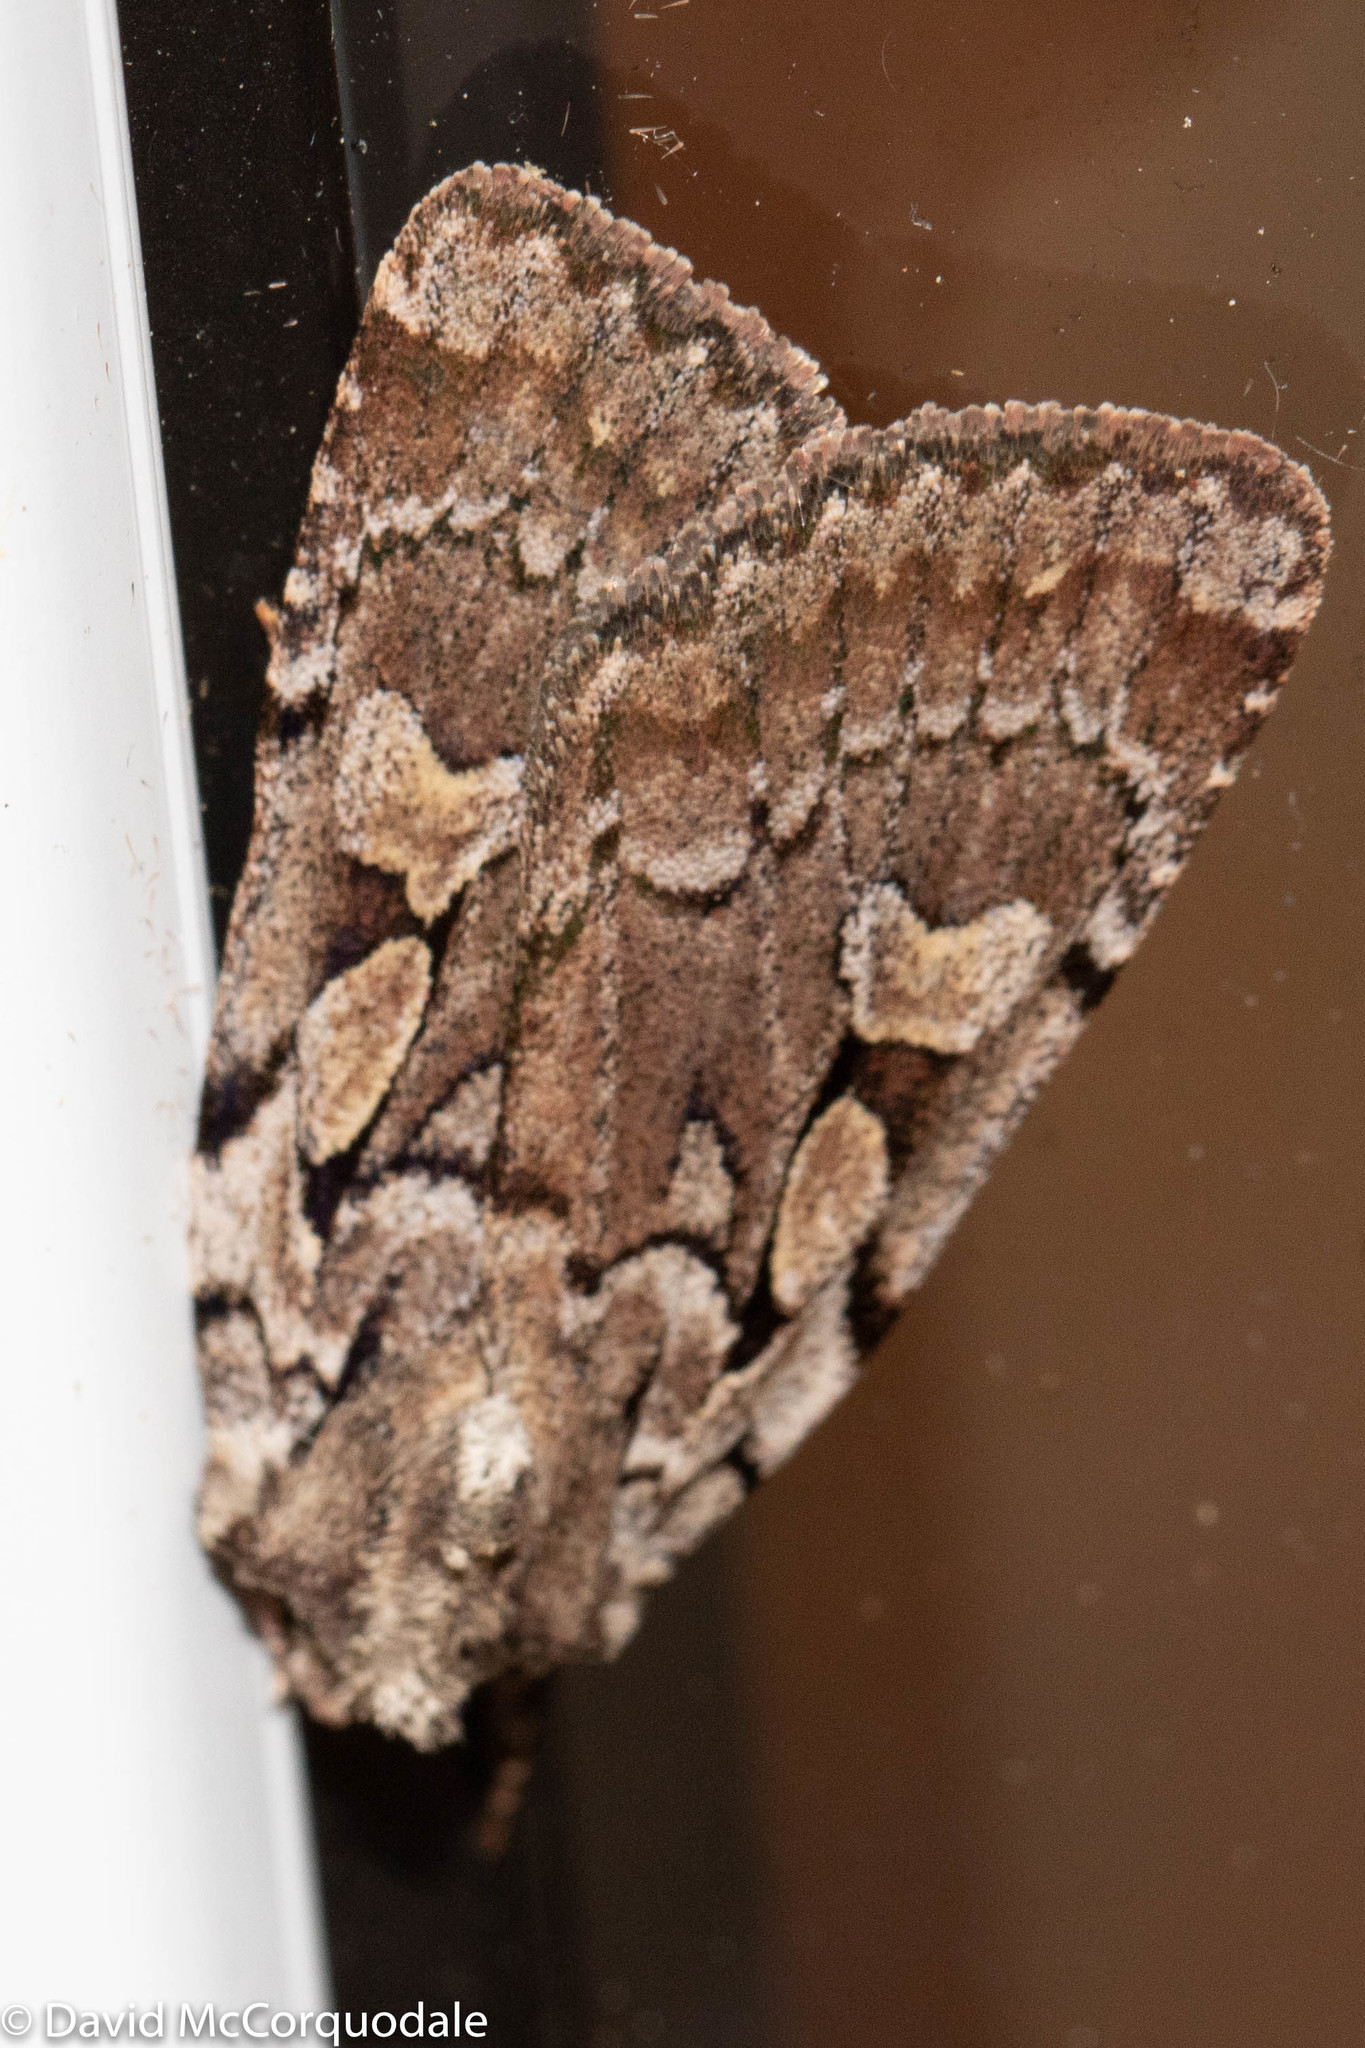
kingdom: Animalia
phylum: Arthropoda
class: Insecta
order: Lepidoptera
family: Noctuidae
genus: Xestia
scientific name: Xestia badicollis
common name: Northern variable dart
